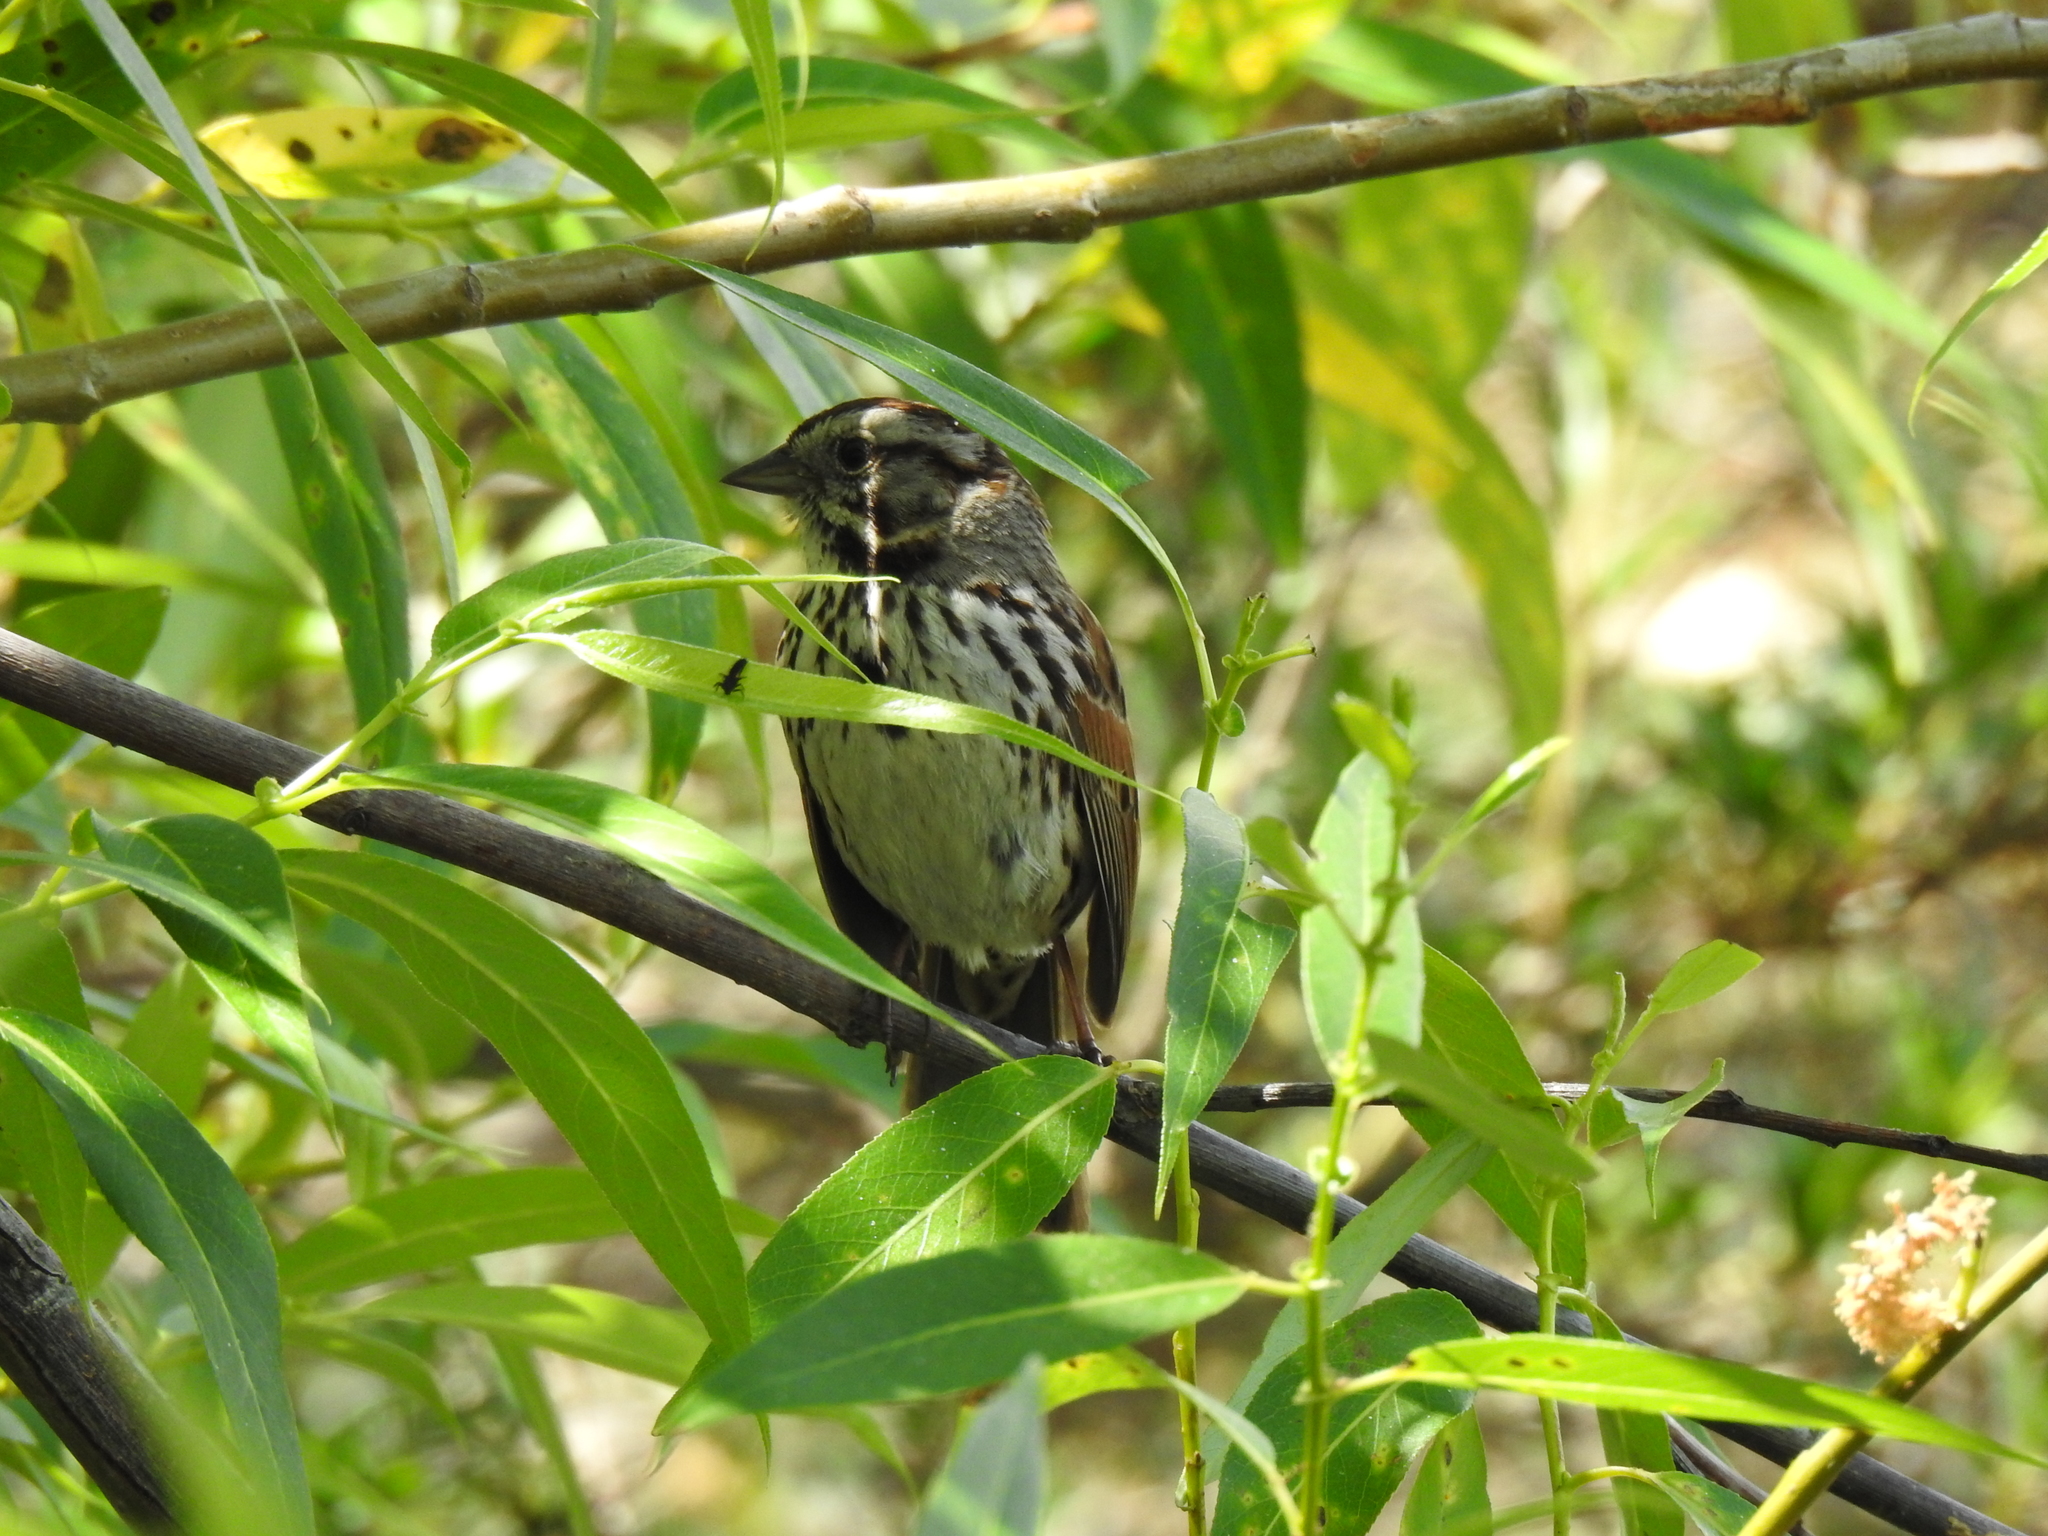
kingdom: Animalia
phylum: Chordata
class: Aves
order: Passeriformes
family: Passerellidae
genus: Melospiza
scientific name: Melospiza melodia
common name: Song sparrow
